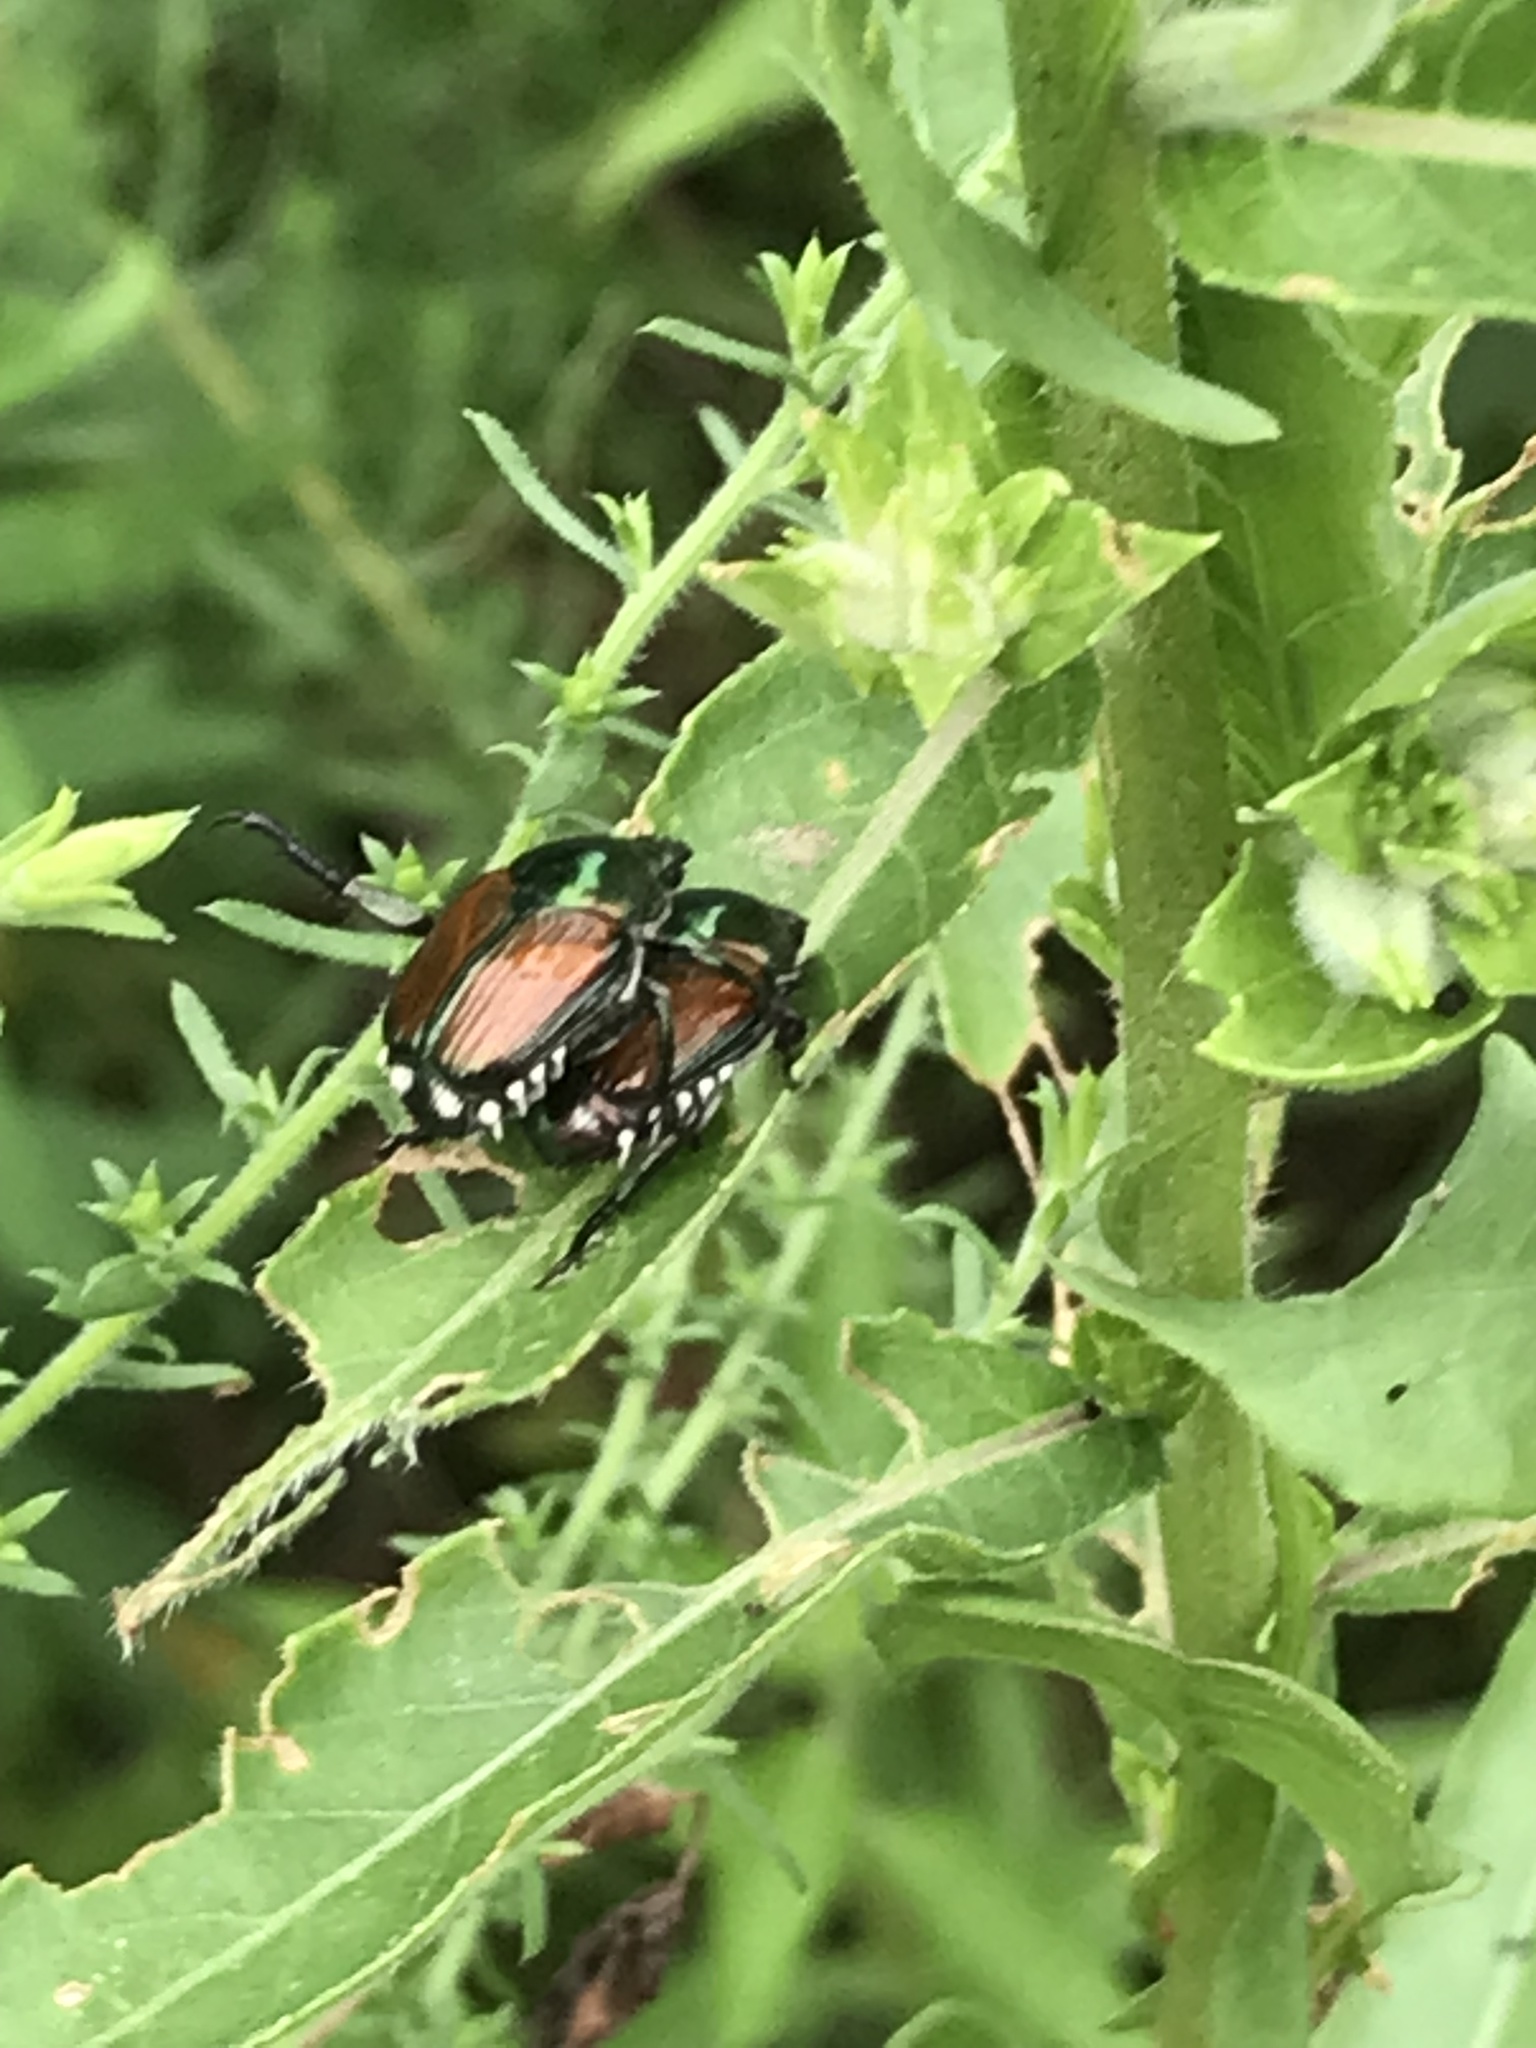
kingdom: Animalia
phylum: Arthropoda
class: Insecta
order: Coleoptera
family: Scarabaeidae
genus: Popillia
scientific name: Popillia japonica
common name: Japanese beetle
